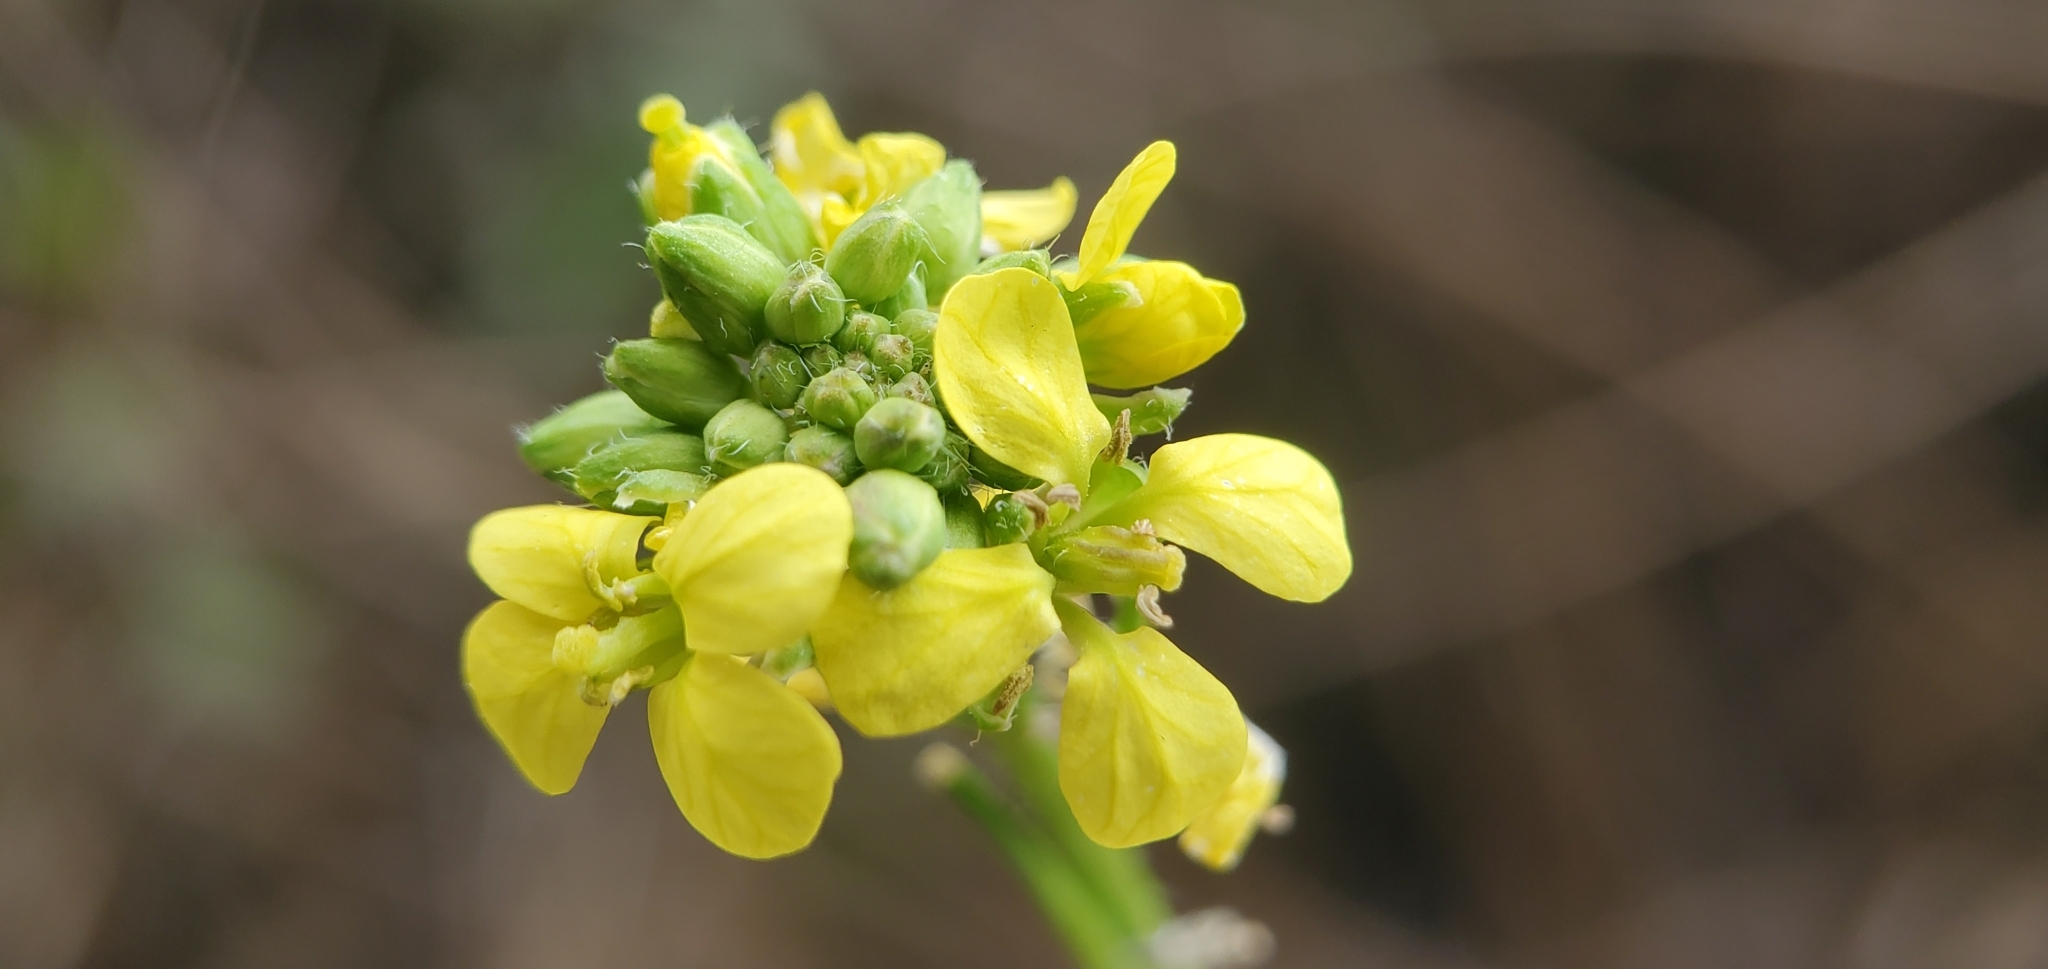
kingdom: Plantae
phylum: Tracheophyta
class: Magnoliopsida
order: Brassicales
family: Brassicaceae
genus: Hirschfeldia
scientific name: Hirschfeldia incana
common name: Hoary mustard
